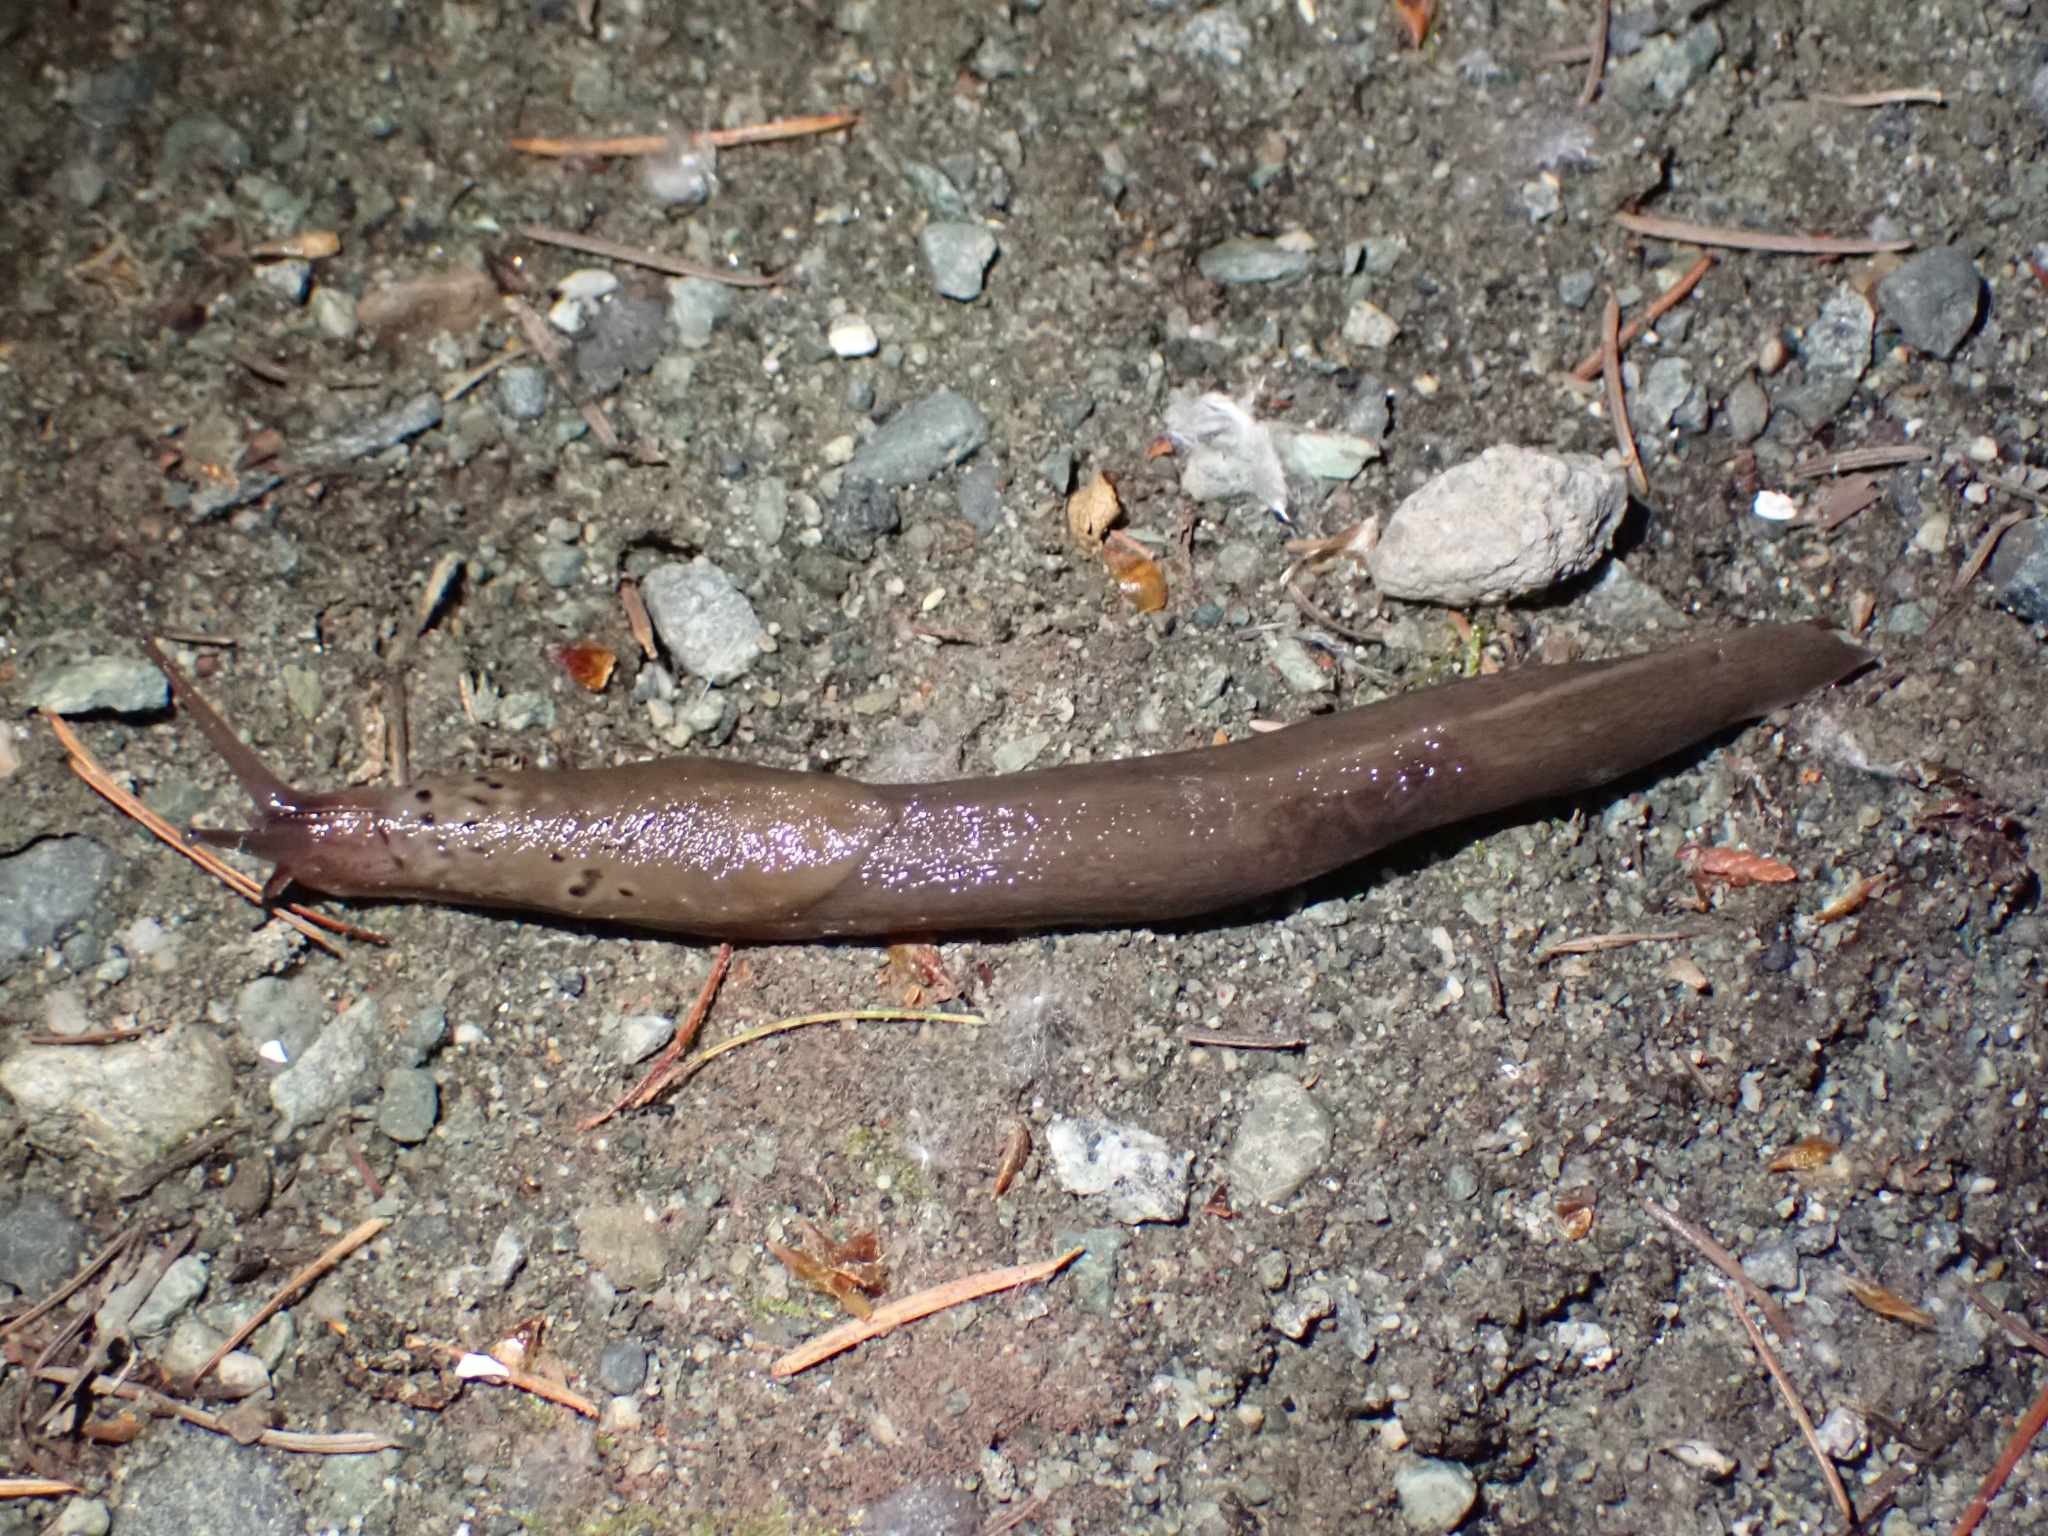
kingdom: Animalia
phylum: Mollusca
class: Gastropoda
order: Stylommatophora
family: Limacidae
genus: Limax
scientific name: Limax maximus
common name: Great grey slug
